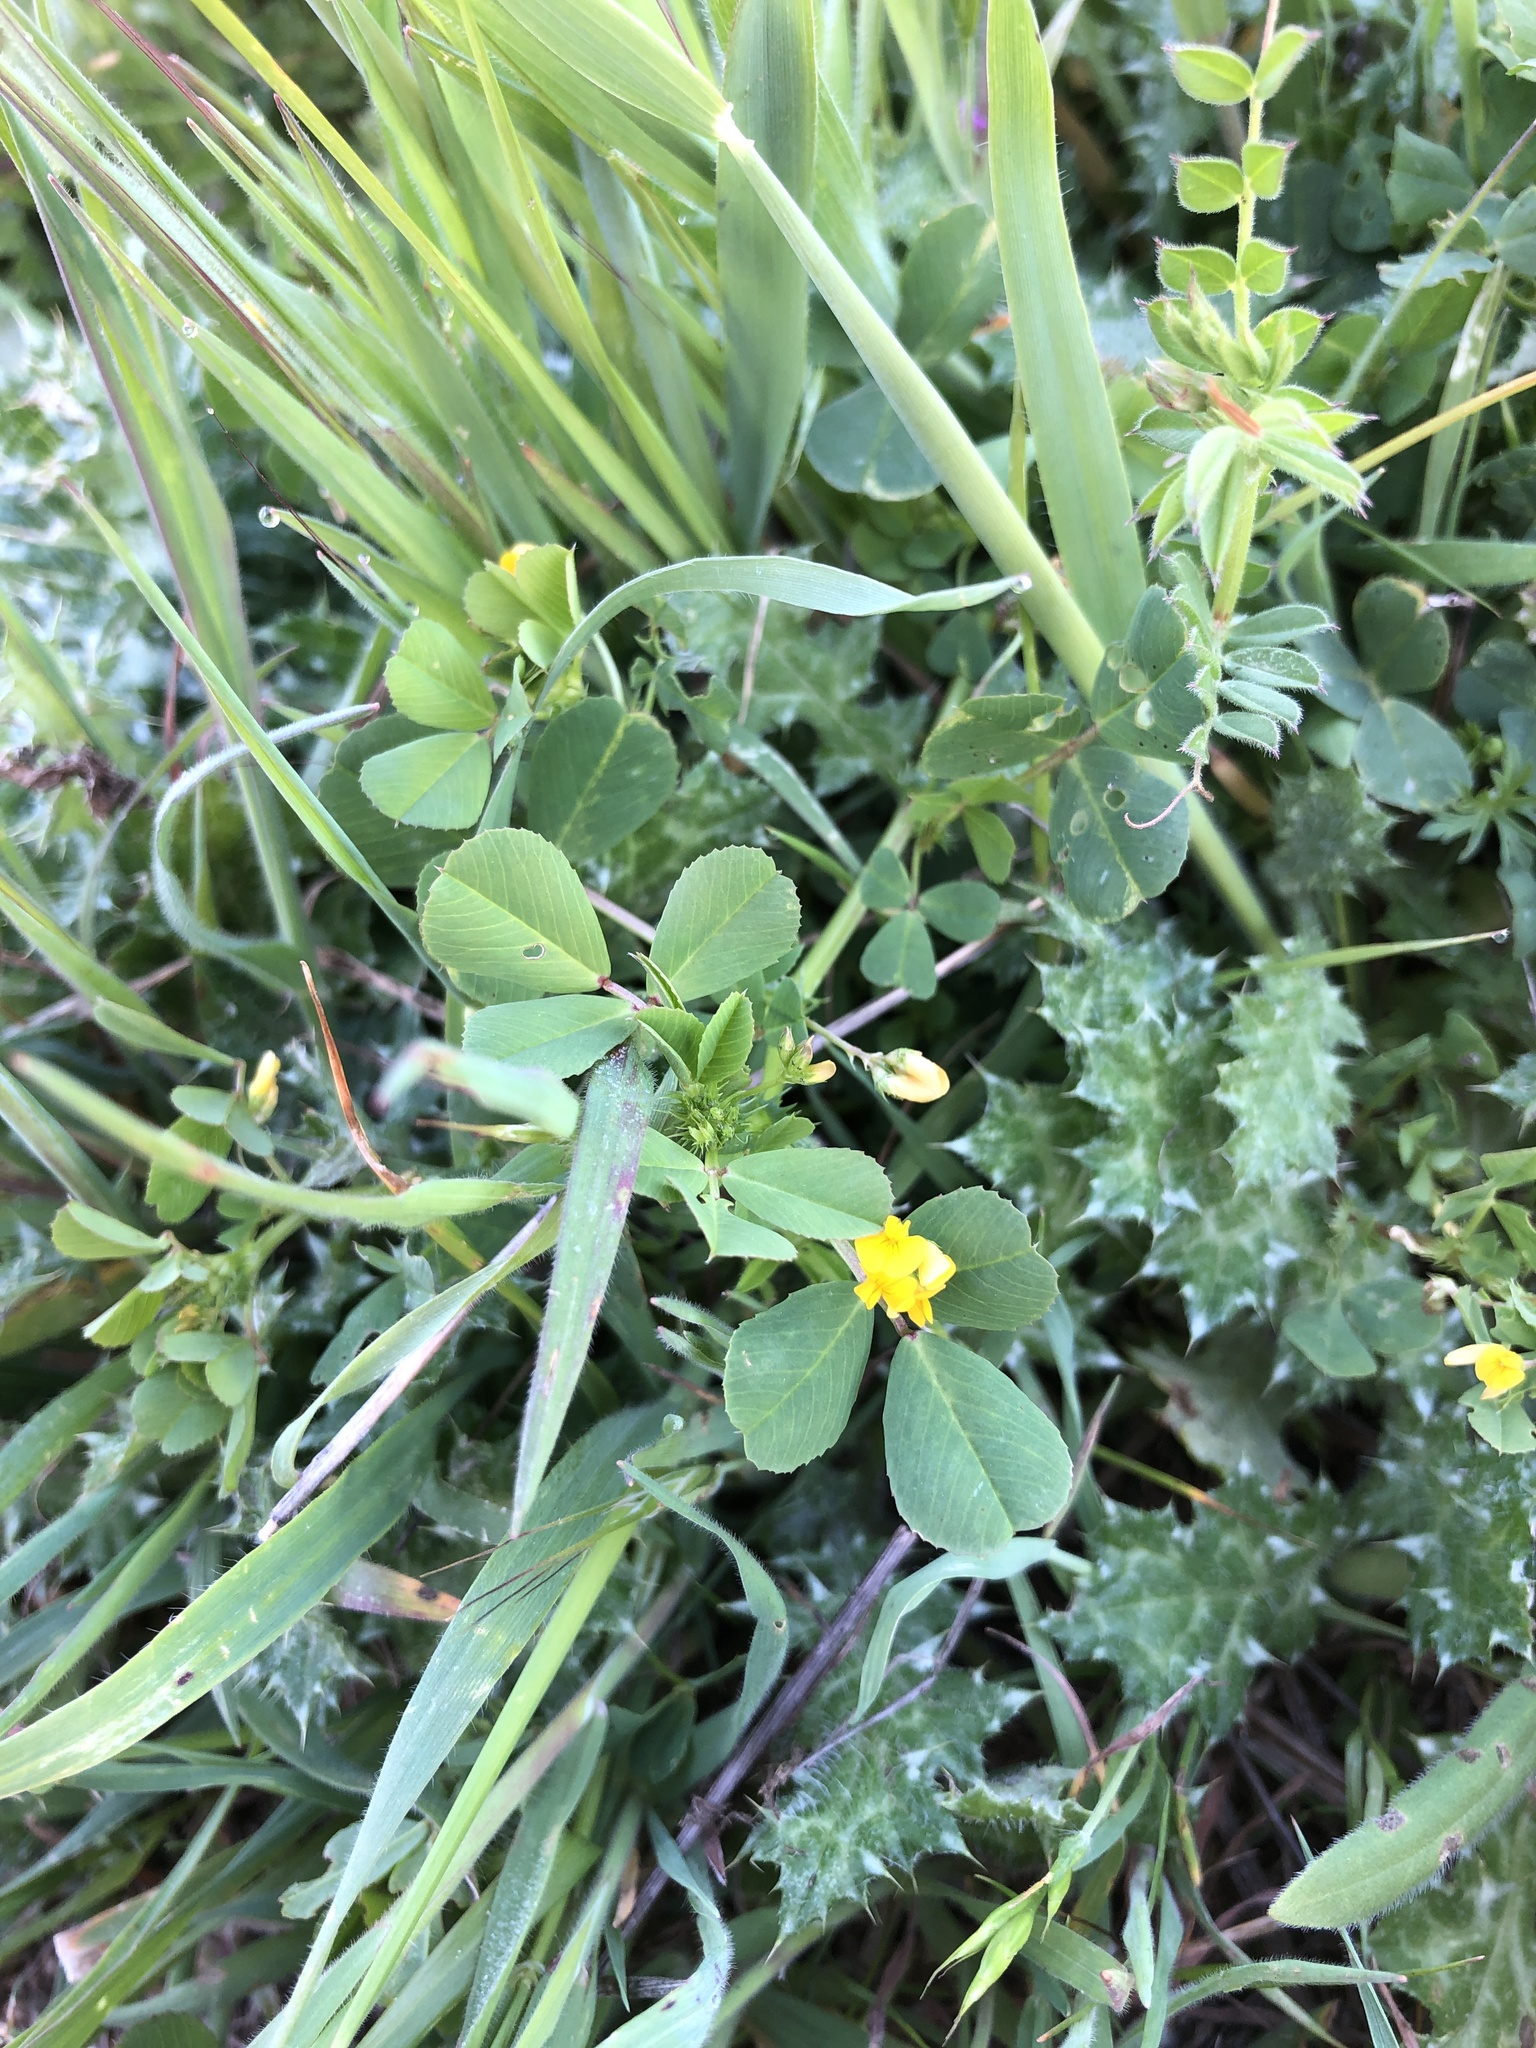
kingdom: Plantae
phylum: Tracheophyta
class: Magnoliopsida
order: Fabales
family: Fabaceae
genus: Medicago
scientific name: Medicago polymorpha
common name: Burclover
